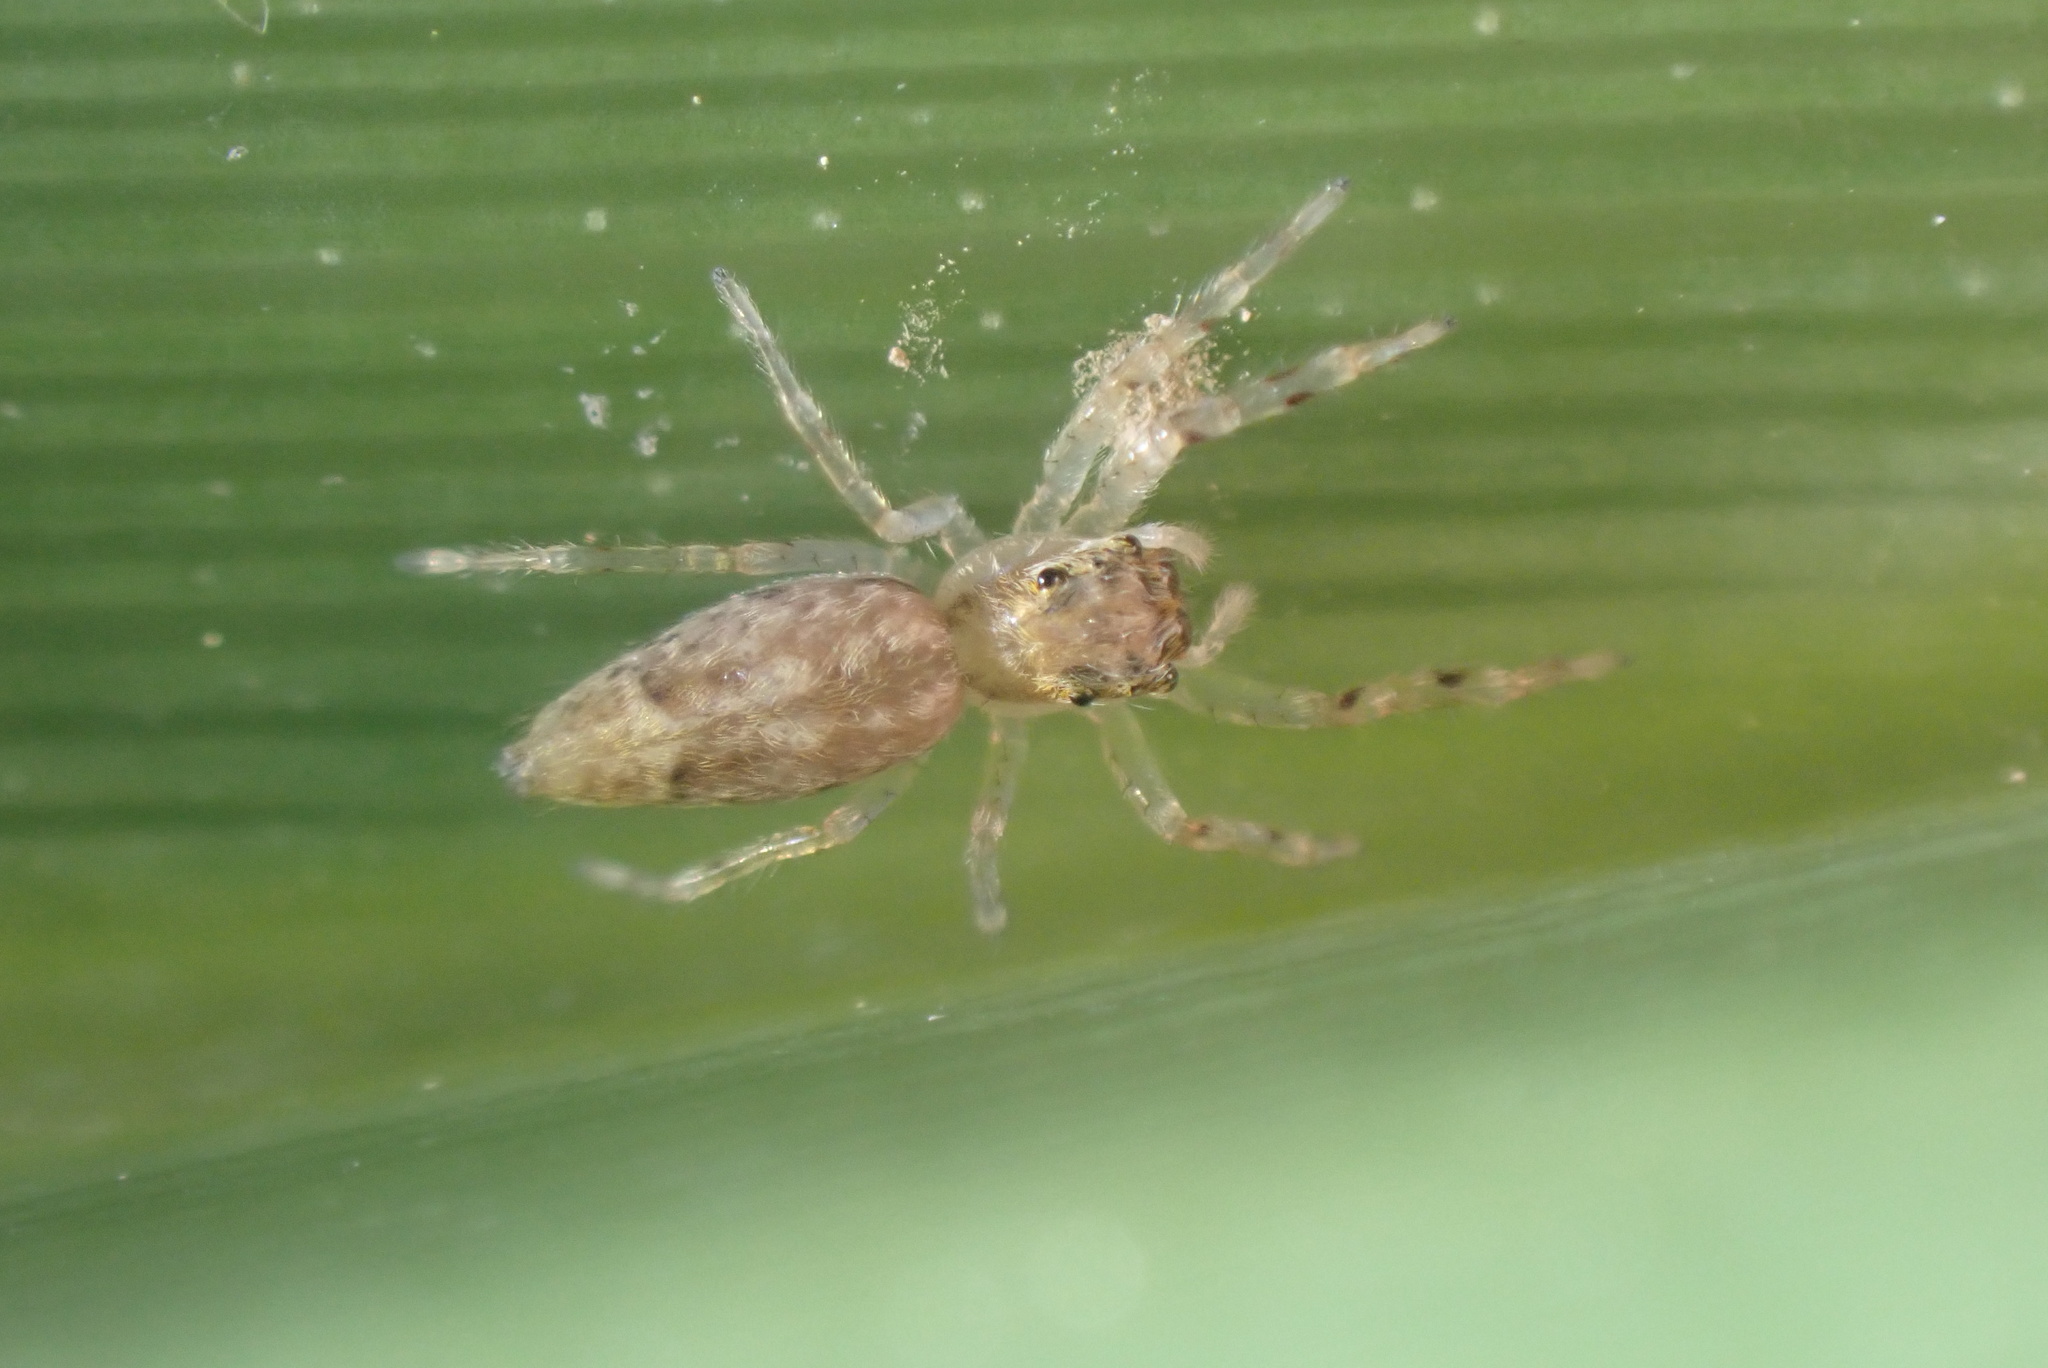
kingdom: Animalia
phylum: Arthropoda
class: Arachnida
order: Araneae
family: Salticidae
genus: Helpis
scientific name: Helpis minitabunda
